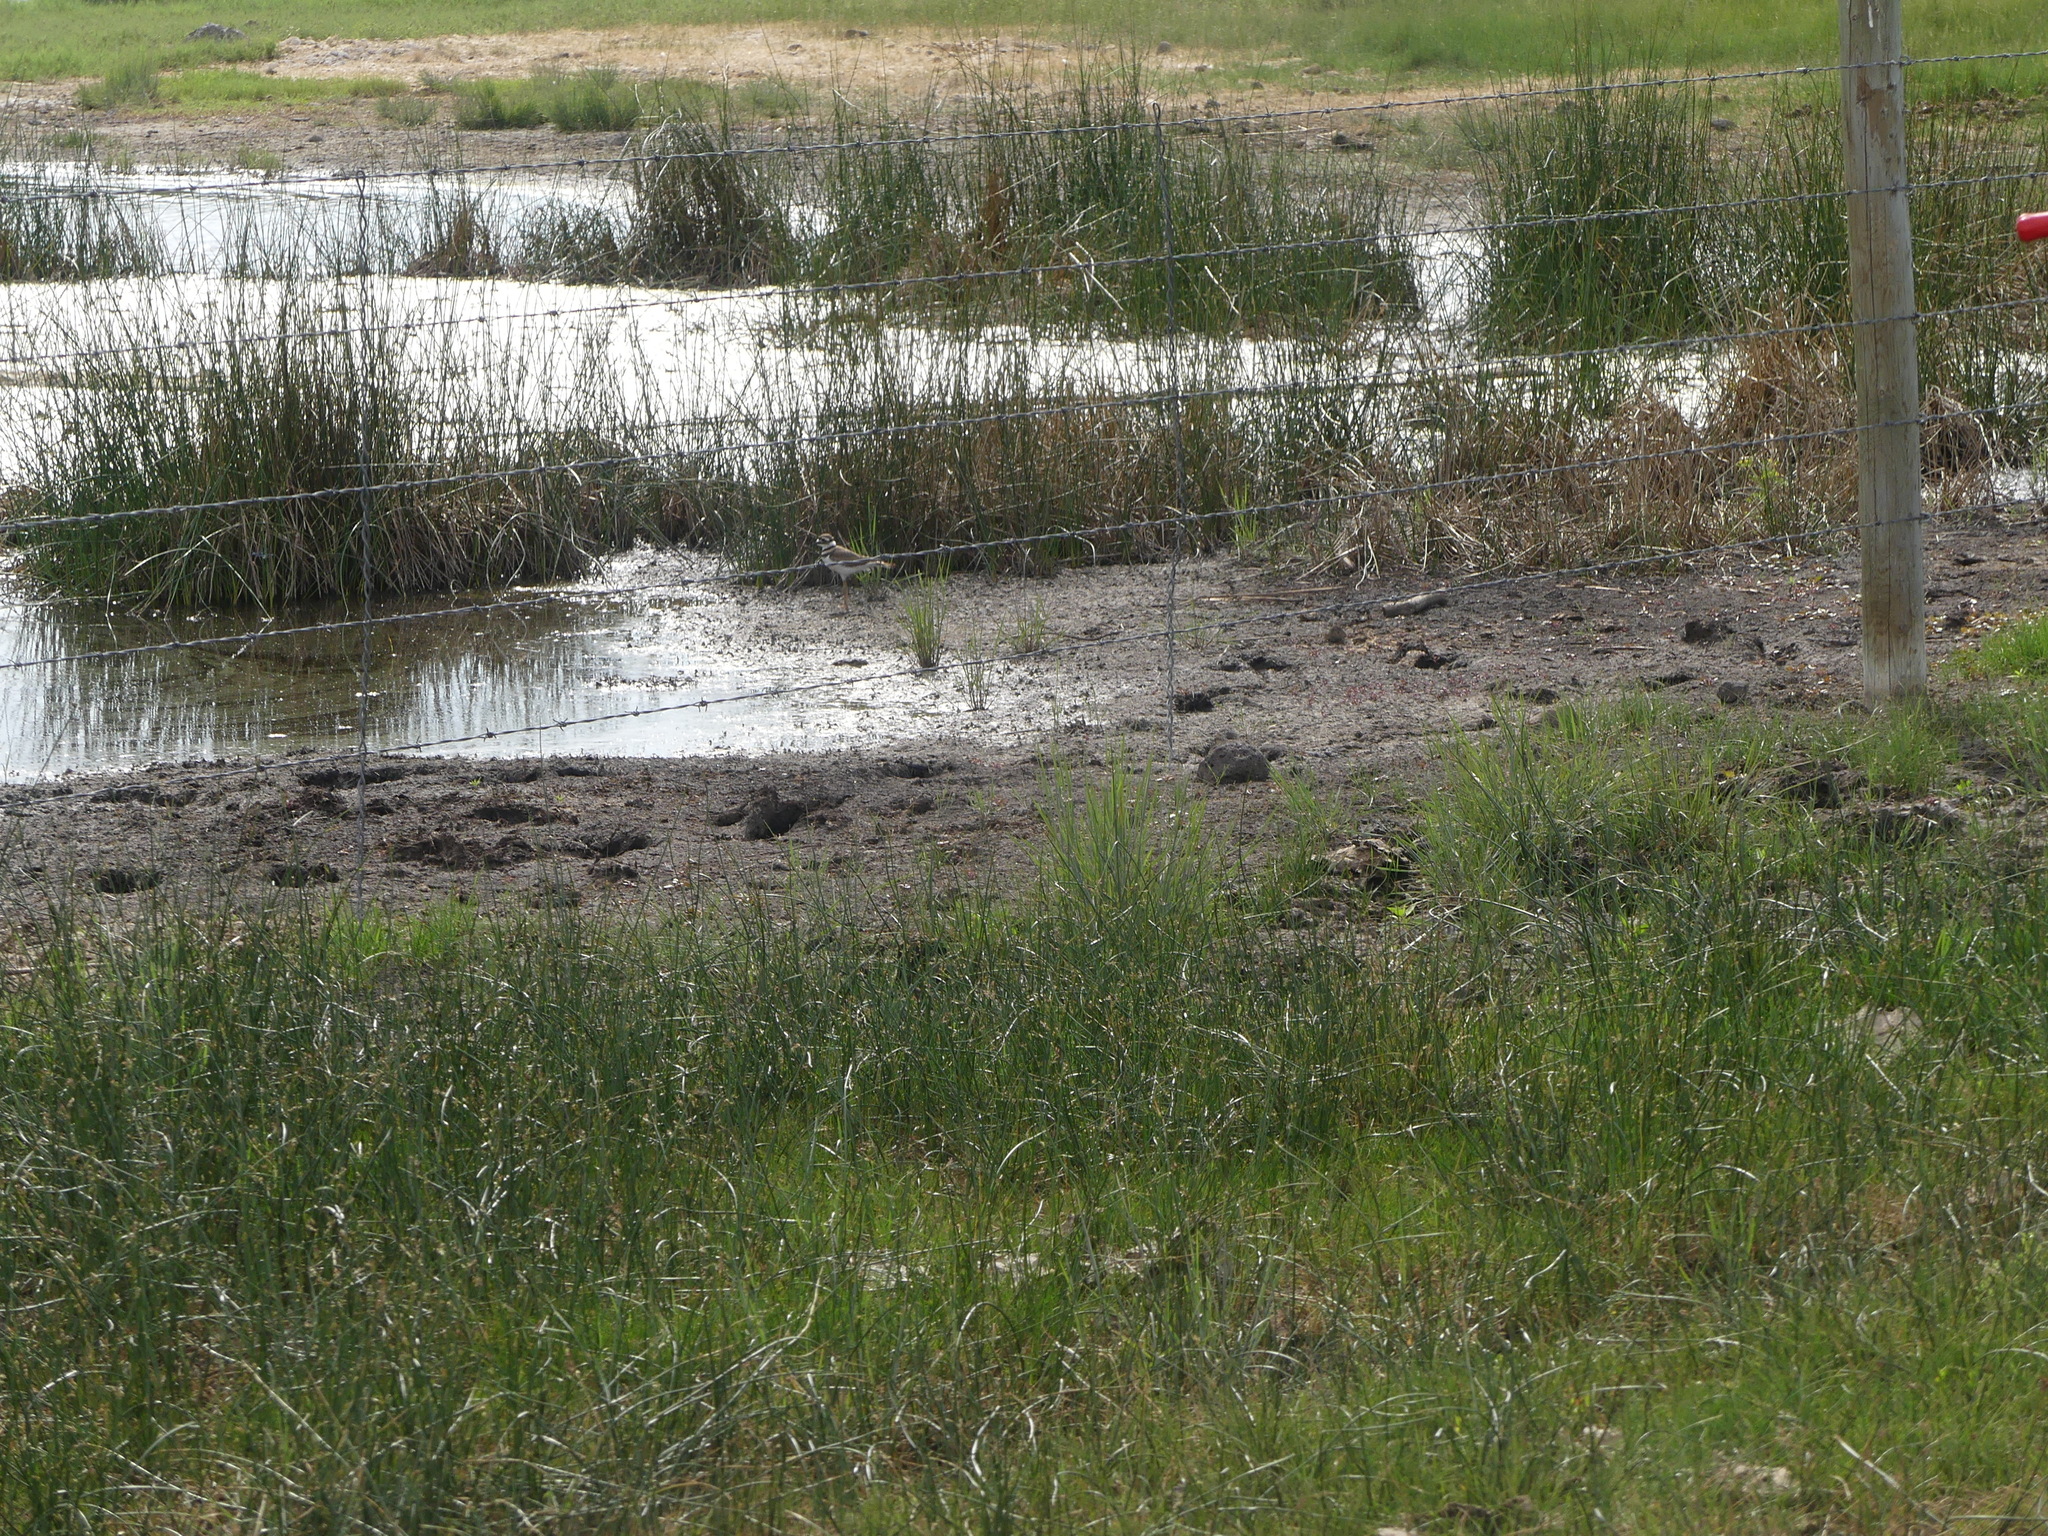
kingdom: Animalia
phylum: Chordata
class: Aves
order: Charadriiformes
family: Charadriidae
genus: Charadrius
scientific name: Charadrius vociferus
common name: Killdeer
